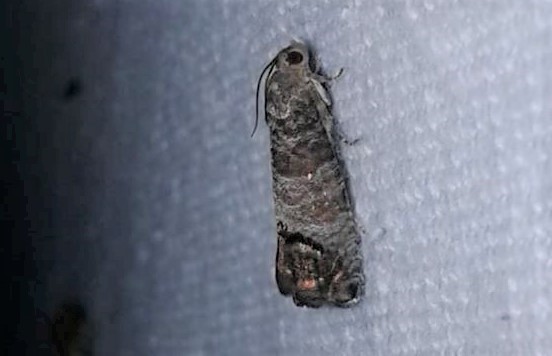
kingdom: Animalia
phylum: Arthropoda
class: Insecta
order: Lepidoptera
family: Tortricidae
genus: Cydia
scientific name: Cydia pomonella
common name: Codling moth
